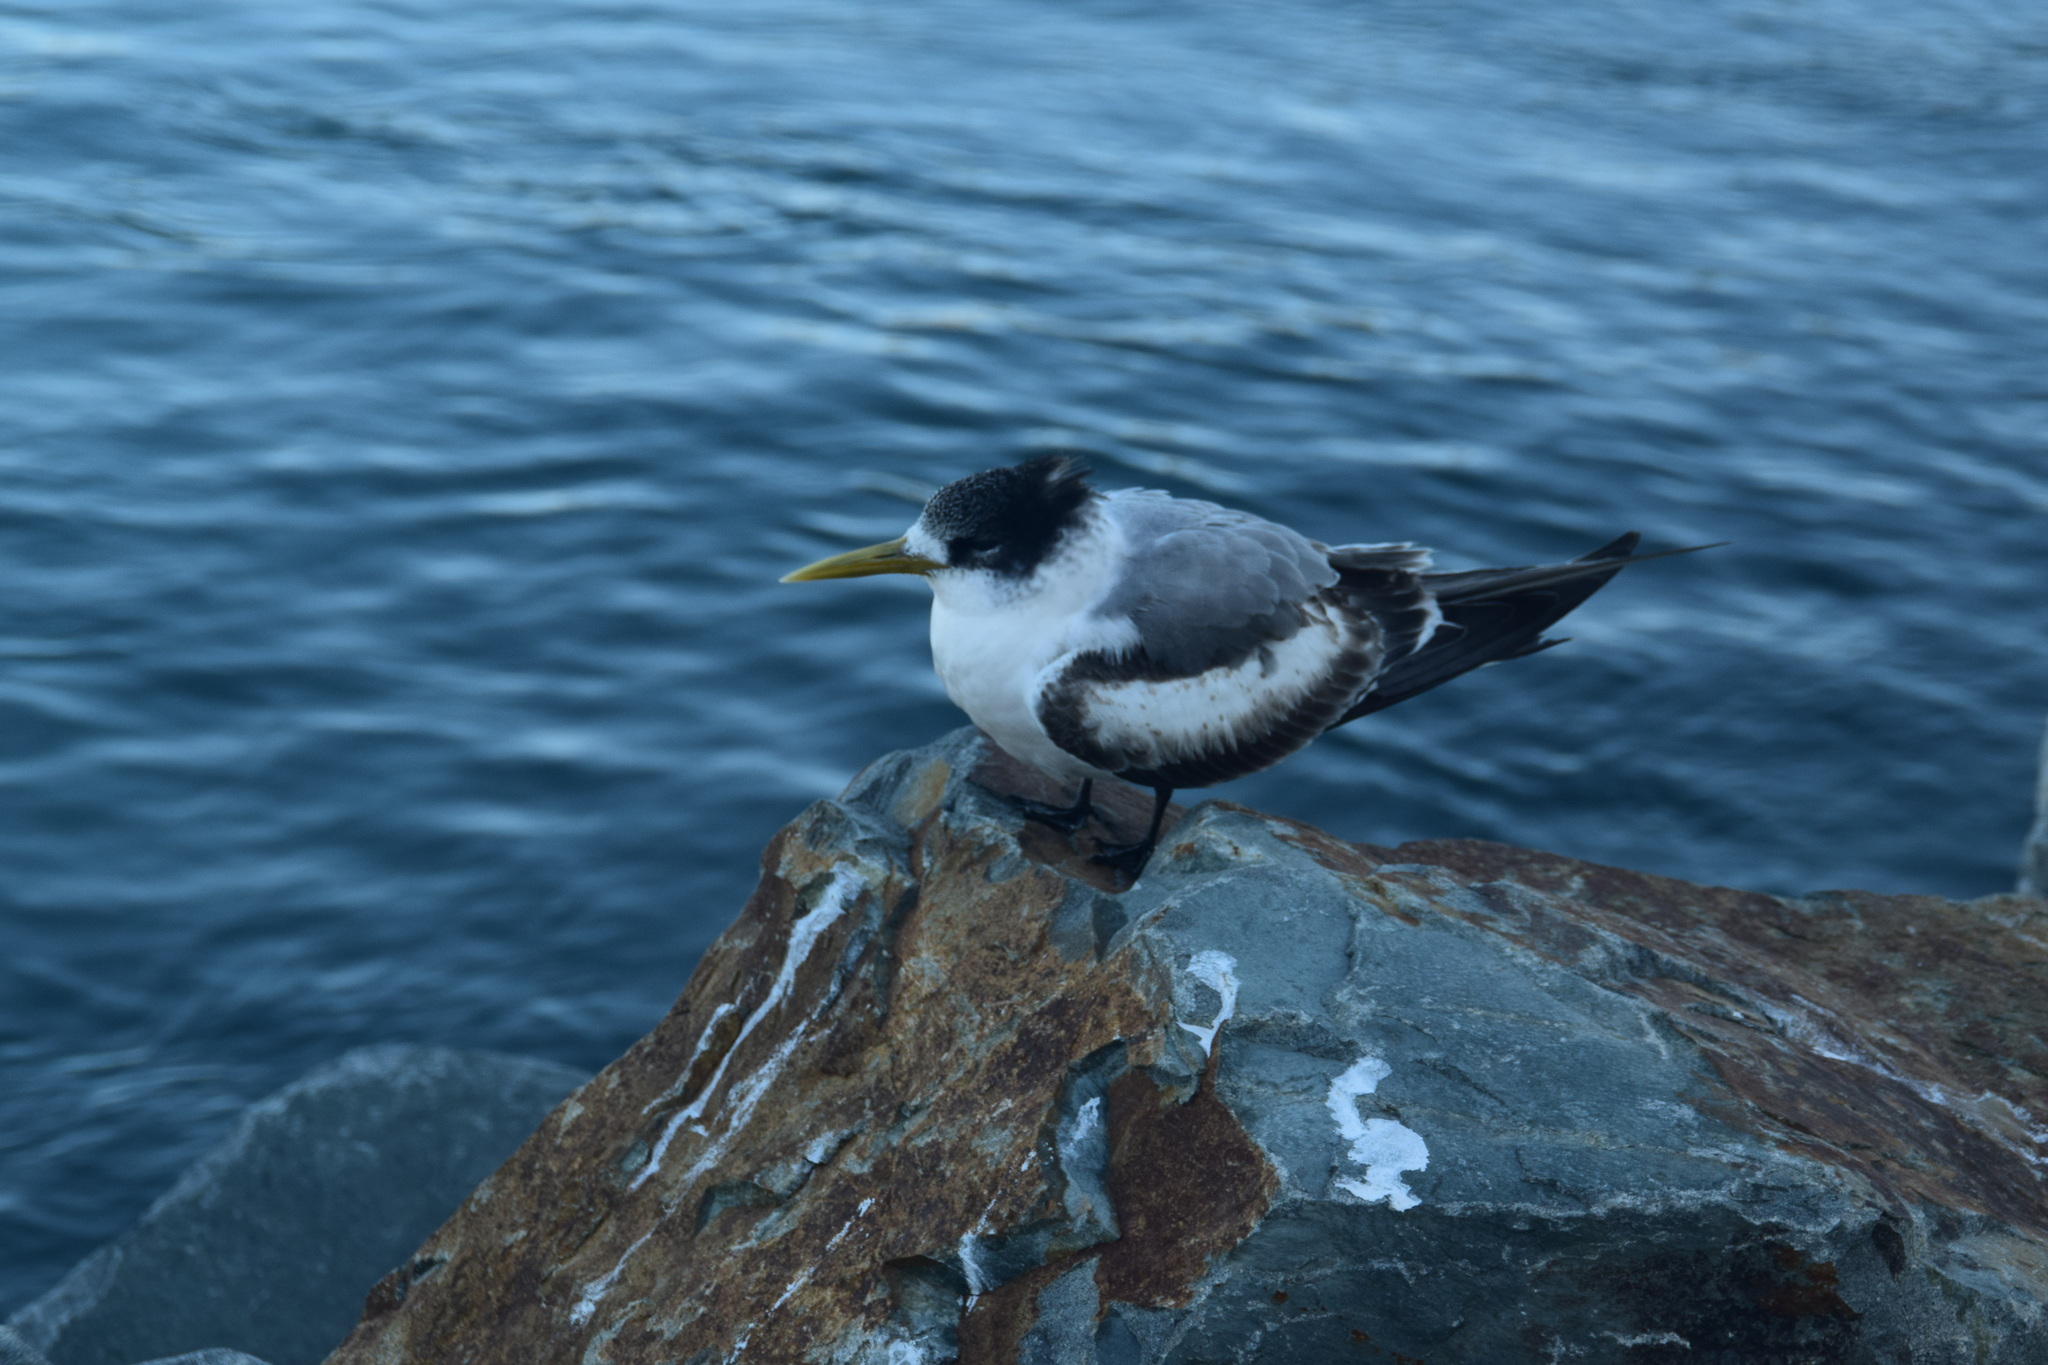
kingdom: Animalia
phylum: Chordata
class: Aves
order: Charadriiformes
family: Laridae
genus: Thalasseus
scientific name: Thalasseus bergii
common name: Greater crested tern
